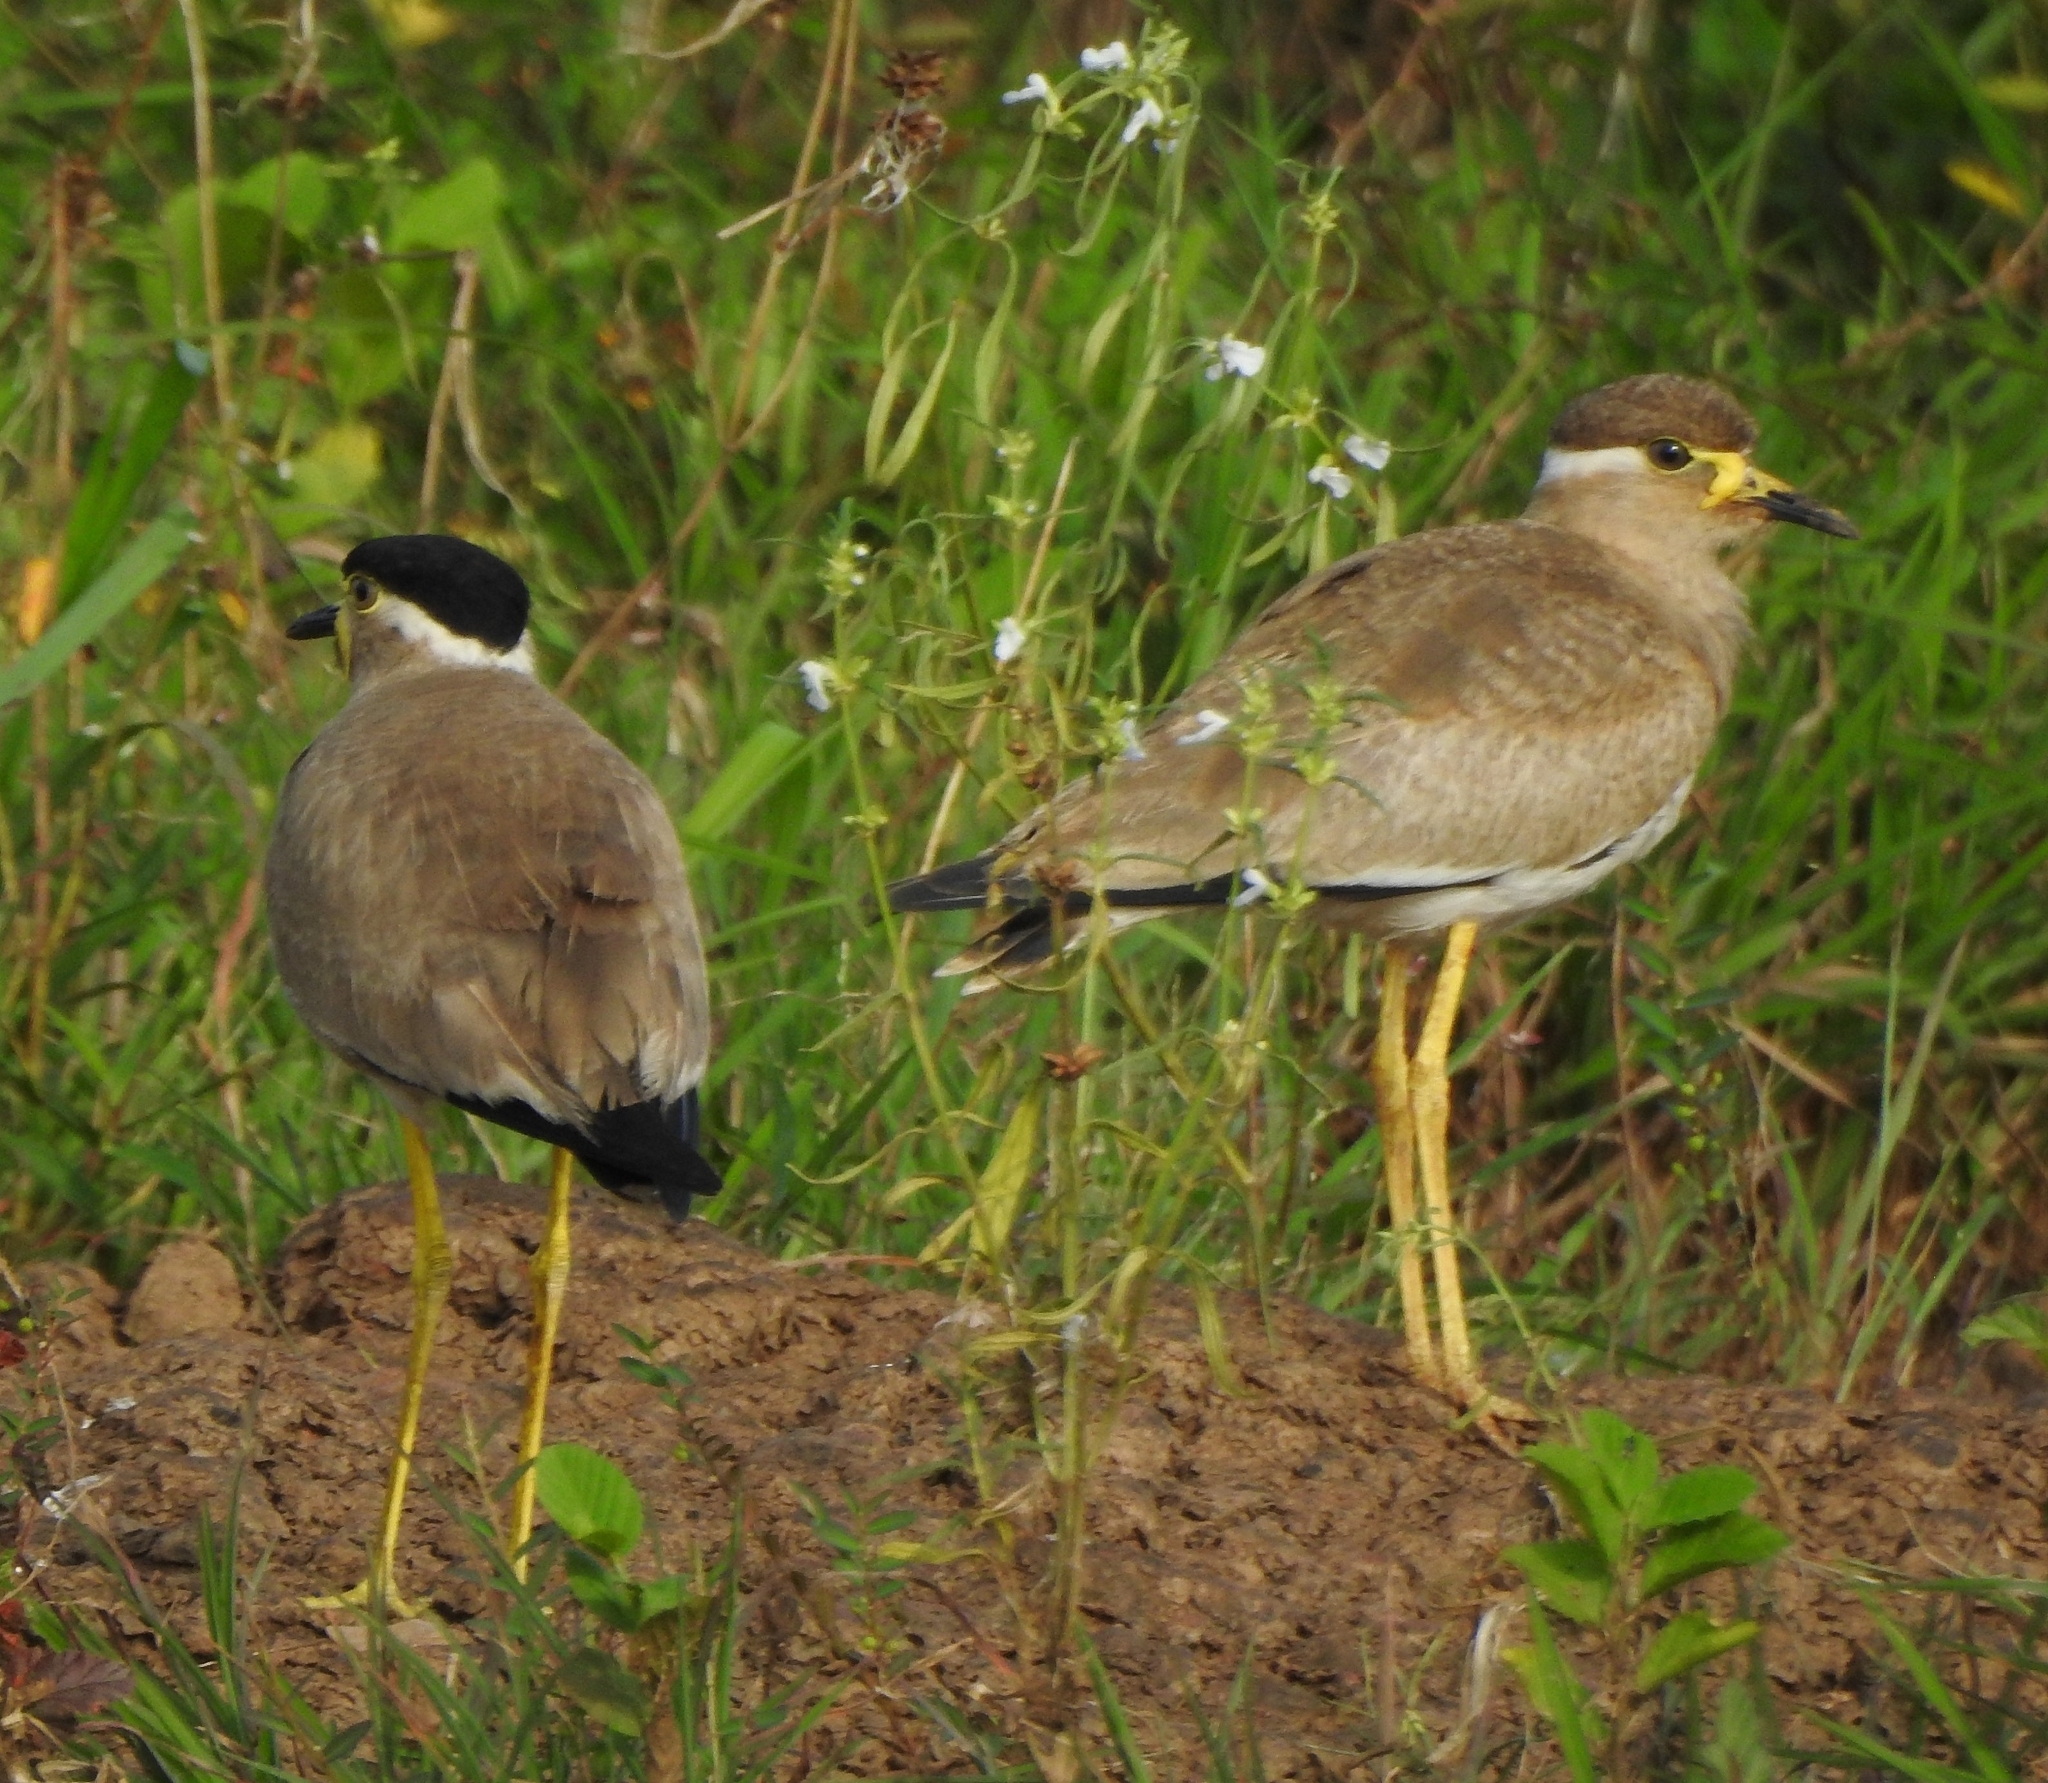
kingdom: Animalia
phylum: Chordata
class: Aves
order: Charadriiformes
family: Charadriidae
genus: Vanellus
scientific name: Vanellus malabaricus
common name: Yellow-wattled lapwing
